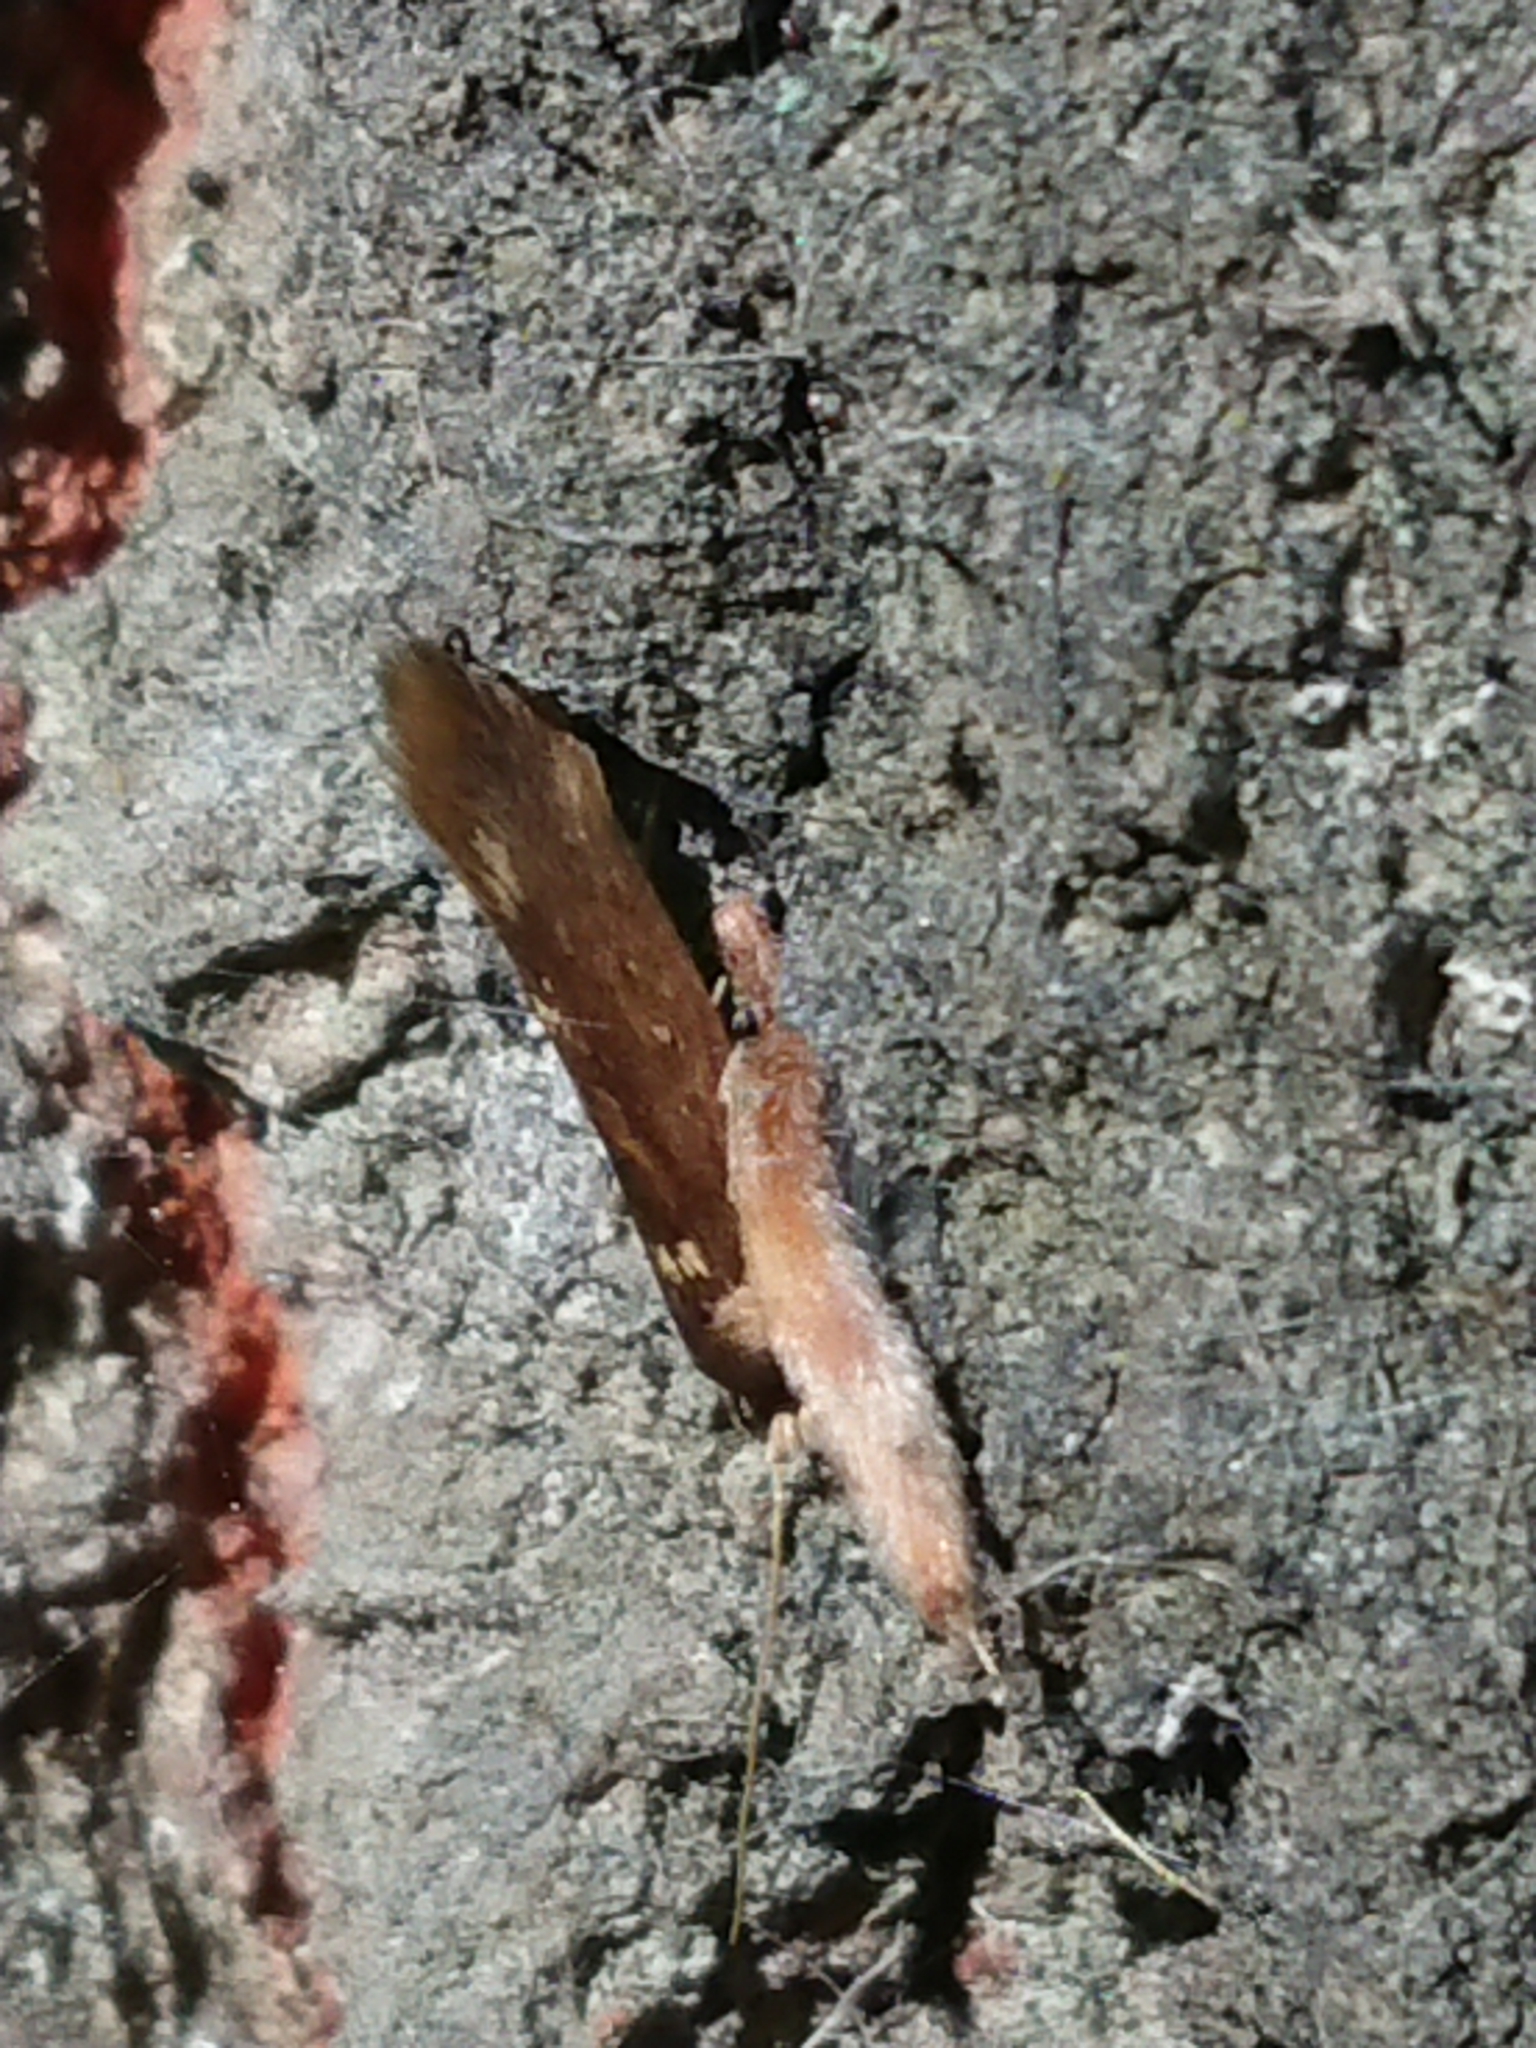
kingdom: Animalia
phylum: Arthropoda
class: Insecta
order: Lepidoptera
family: Tineidae
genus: Opogona
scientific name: Opogona omoscopa
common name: Moth
